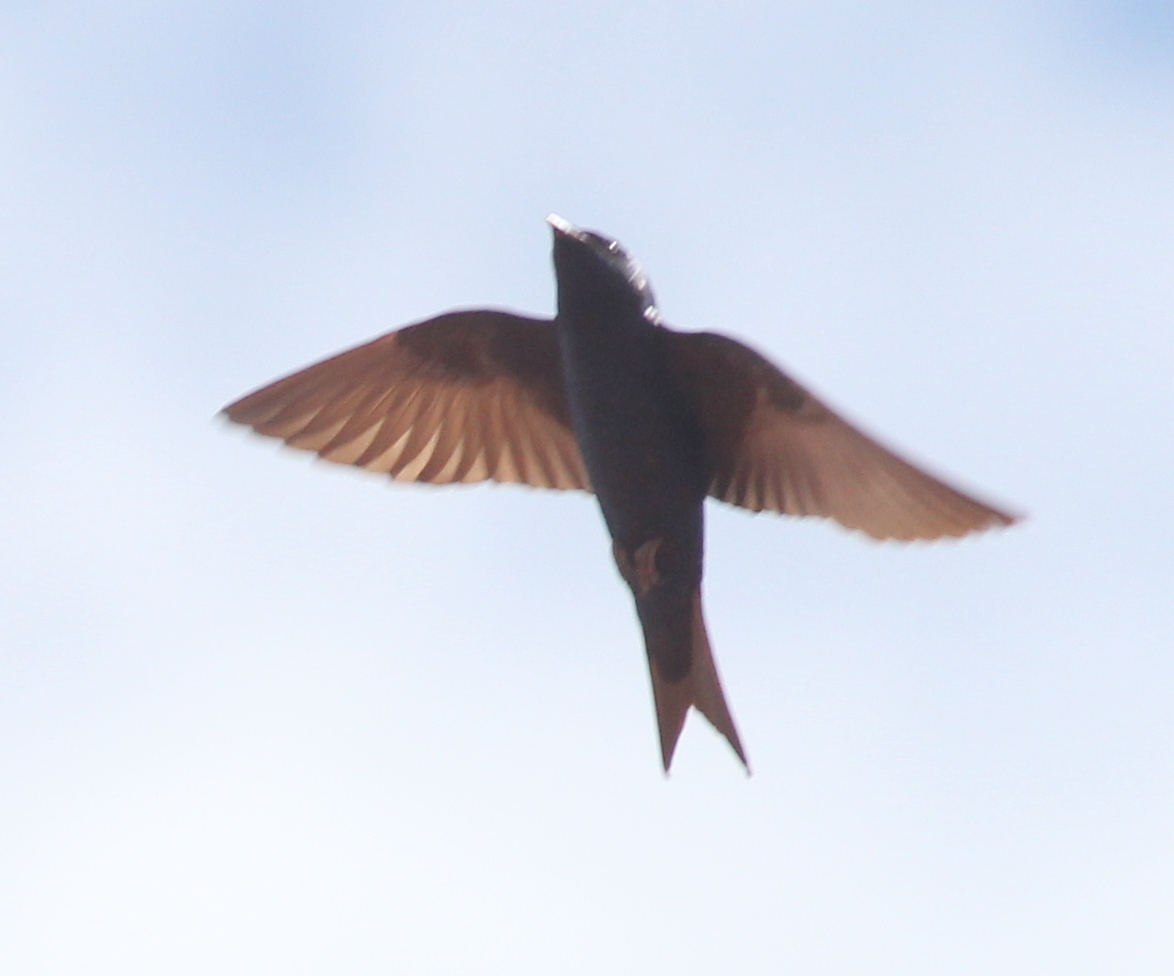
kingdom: Animalia
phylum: Chordata
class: Aves
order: Passeriformes
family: Hirundinidae
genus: Progne
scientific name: Progne elegans
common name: Southern martin
